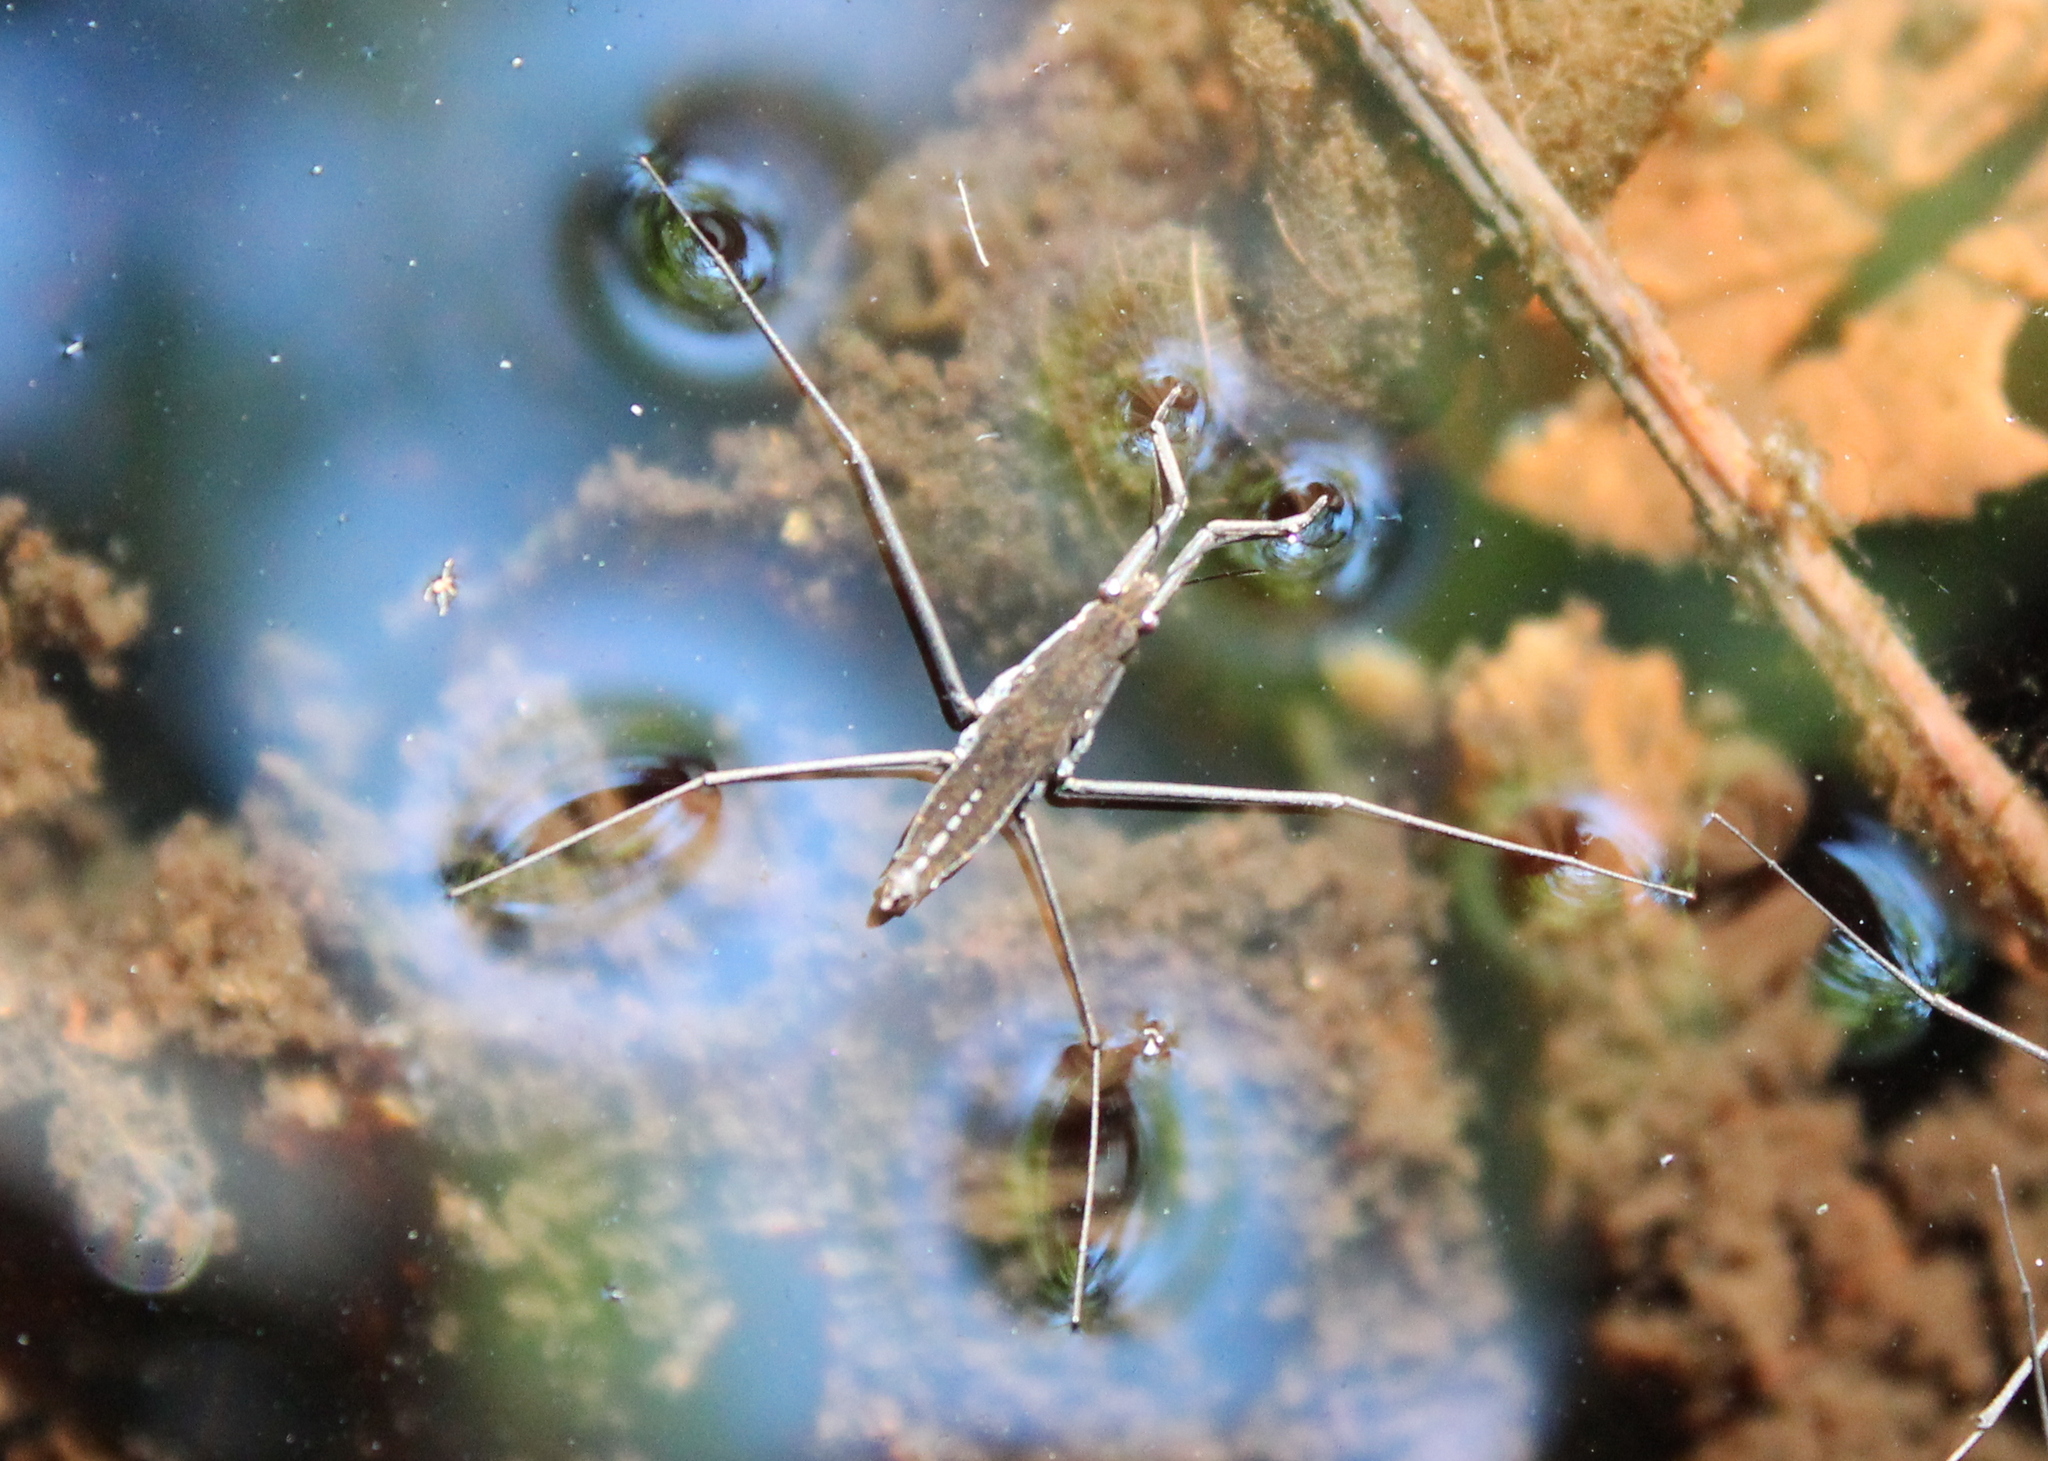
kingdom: Animalia
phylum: Arthropoda
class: Insecta
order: Hemiptera
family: Gerridae
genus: Aquarius
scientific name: Aquarius remigis
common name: Common water strider
